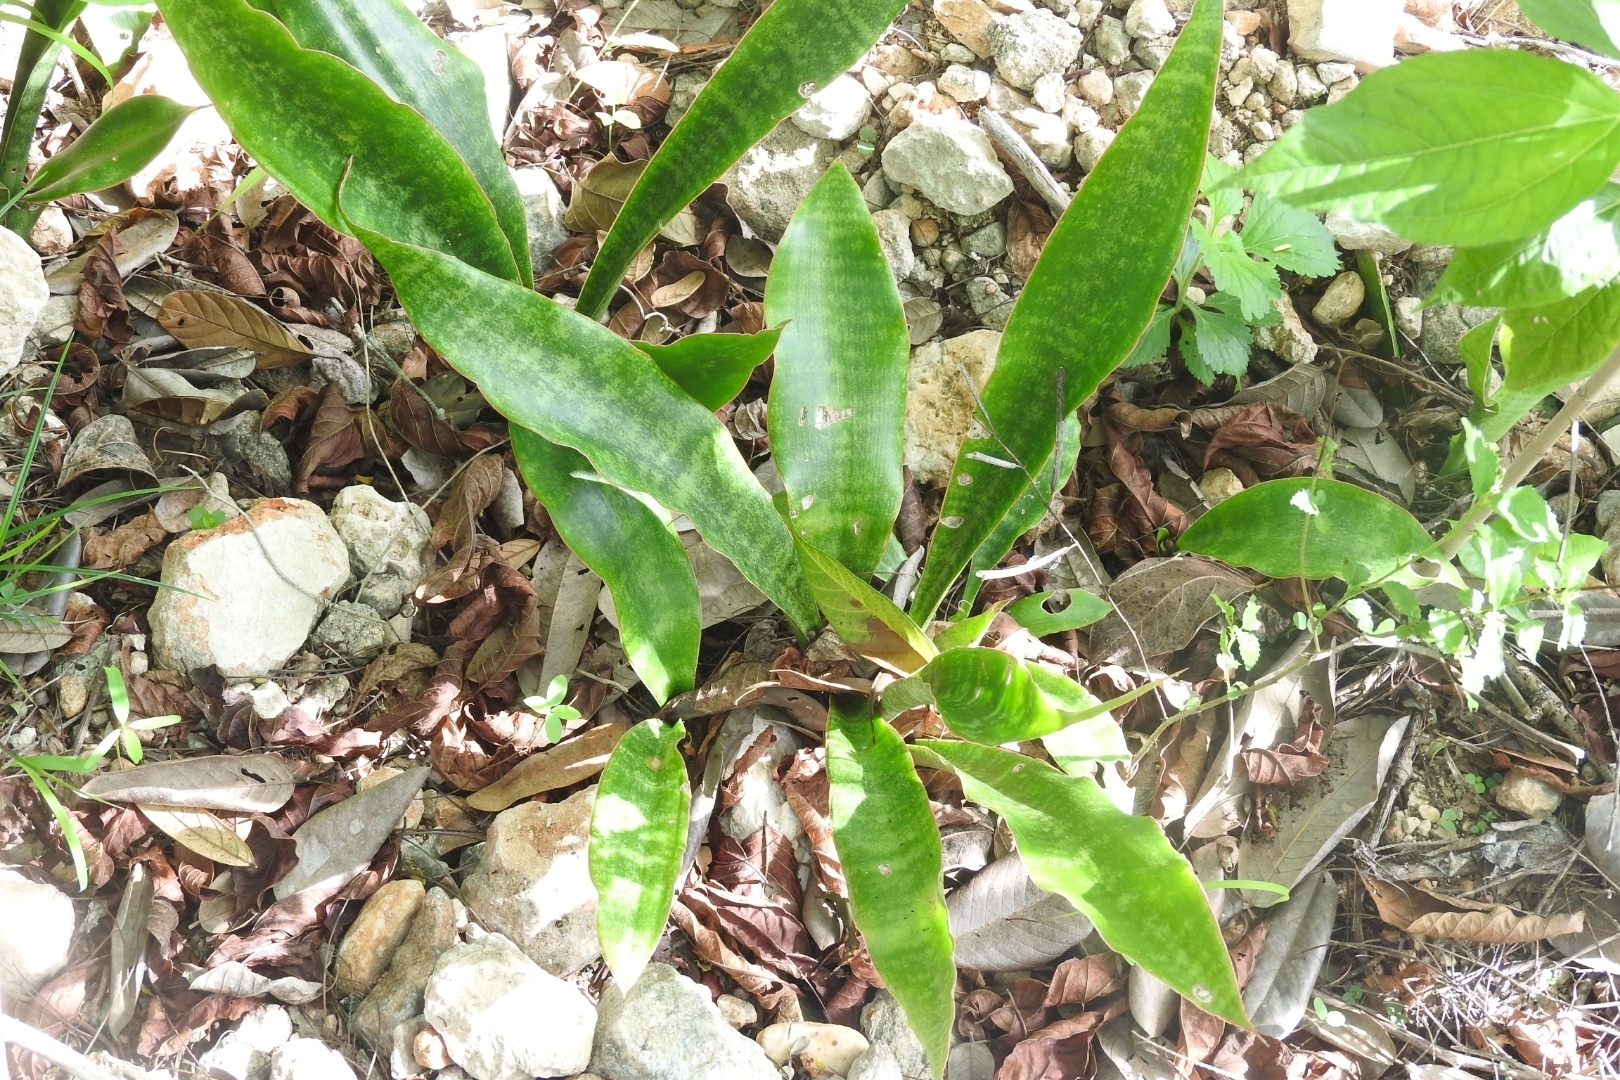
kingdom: Plantae
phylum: Tracheophyta
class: Liliopsida
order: Asparagales
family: Asparagaceae
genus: Dracaena
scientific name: Dracaena hyacinthoides
